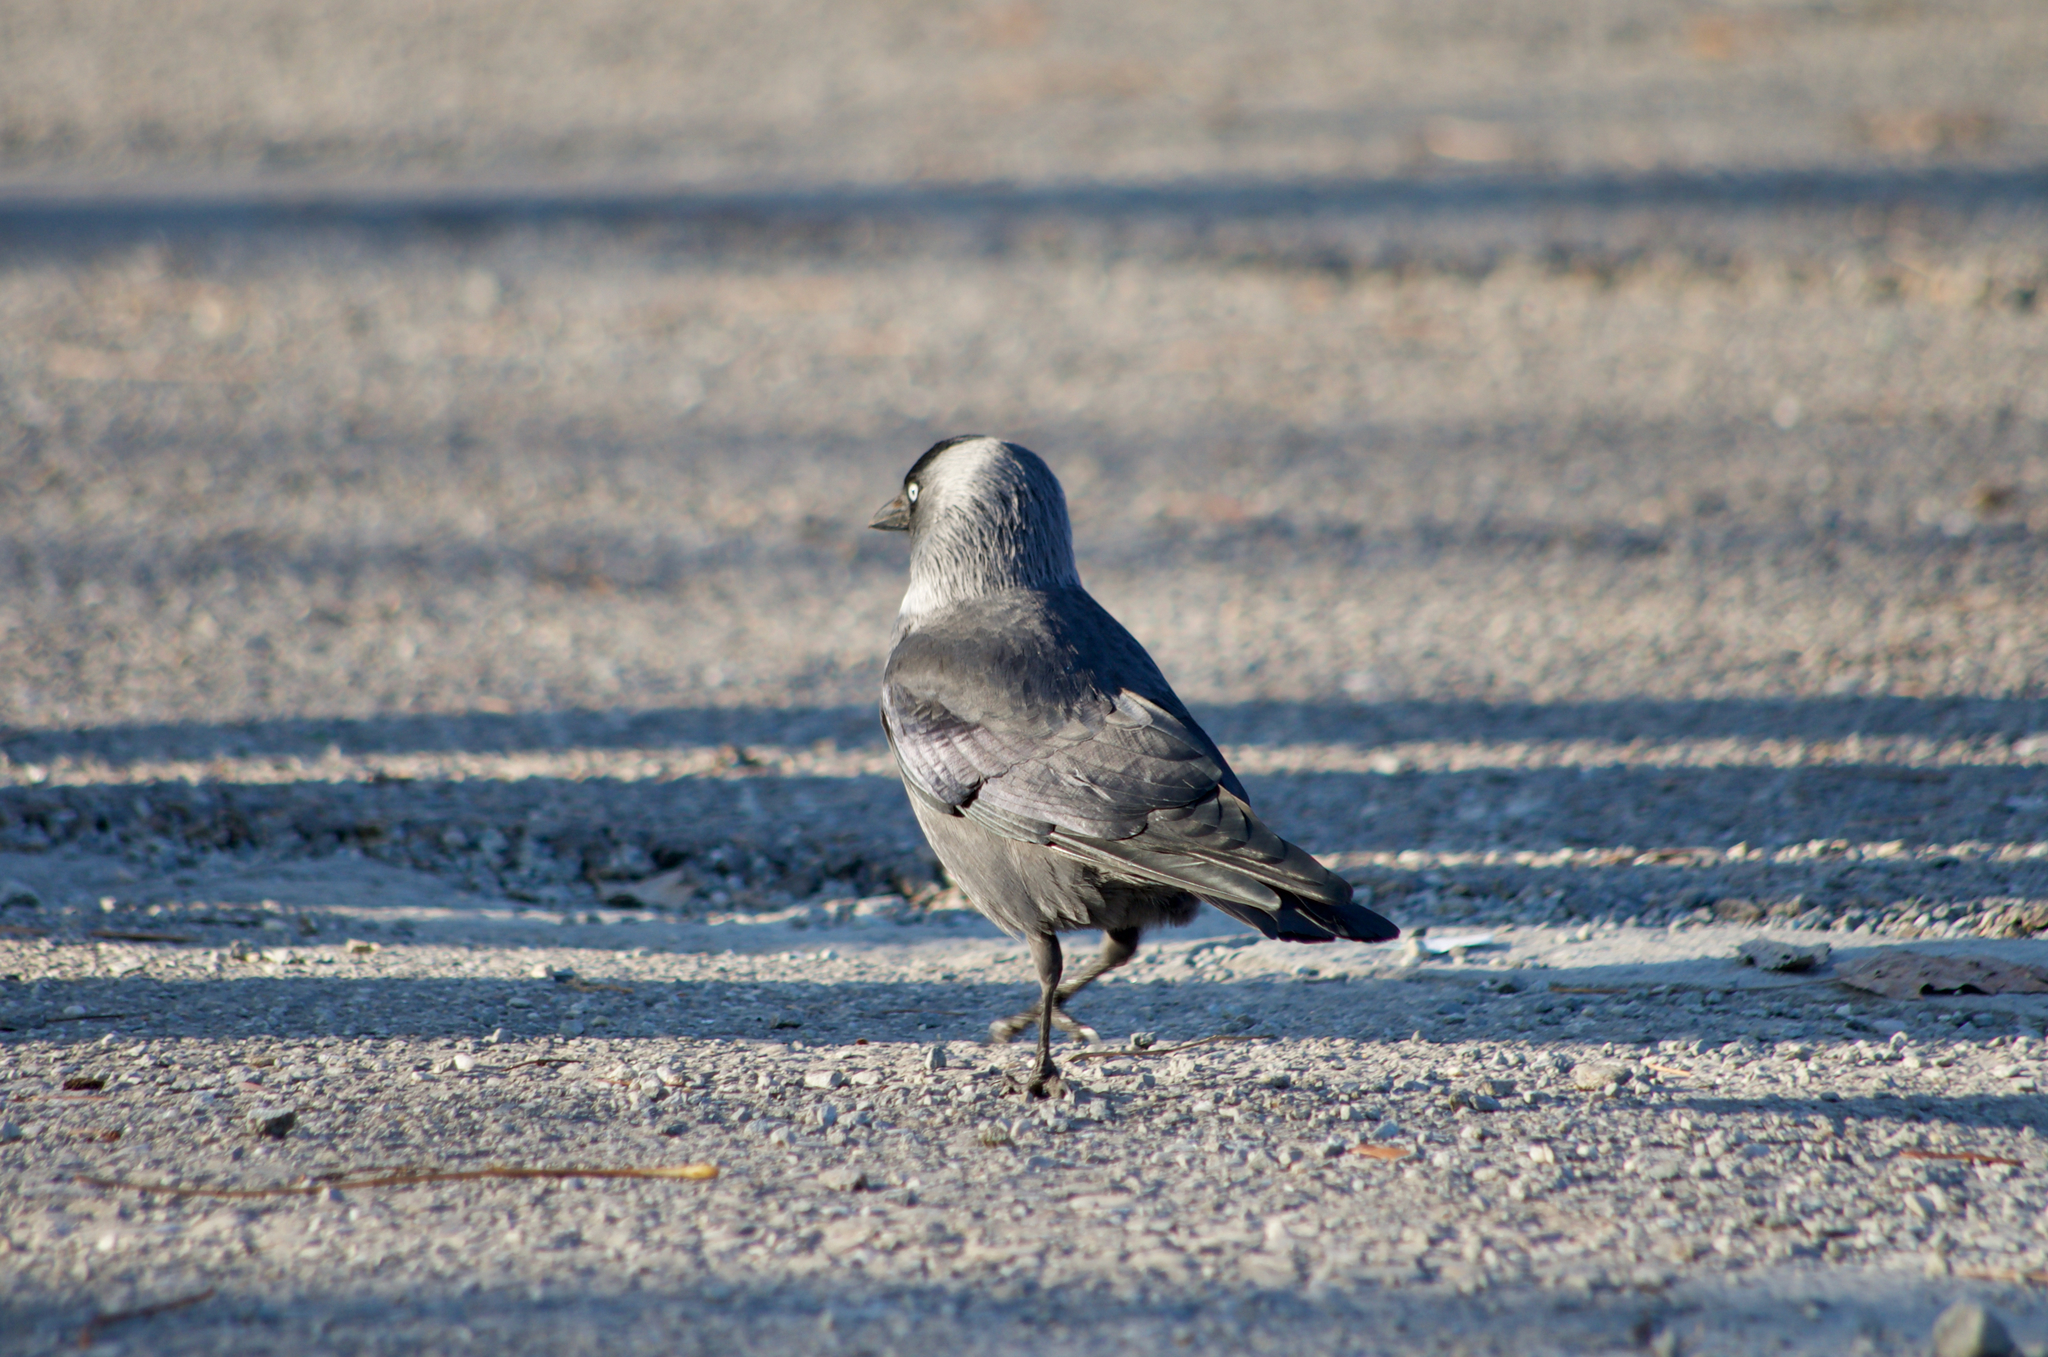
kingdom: Animalia
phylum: Chordata
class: Aves
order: Passeriformes
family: Corvidae
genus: Coloeus
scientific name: Coloeus monedula
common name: Western jackdaw
